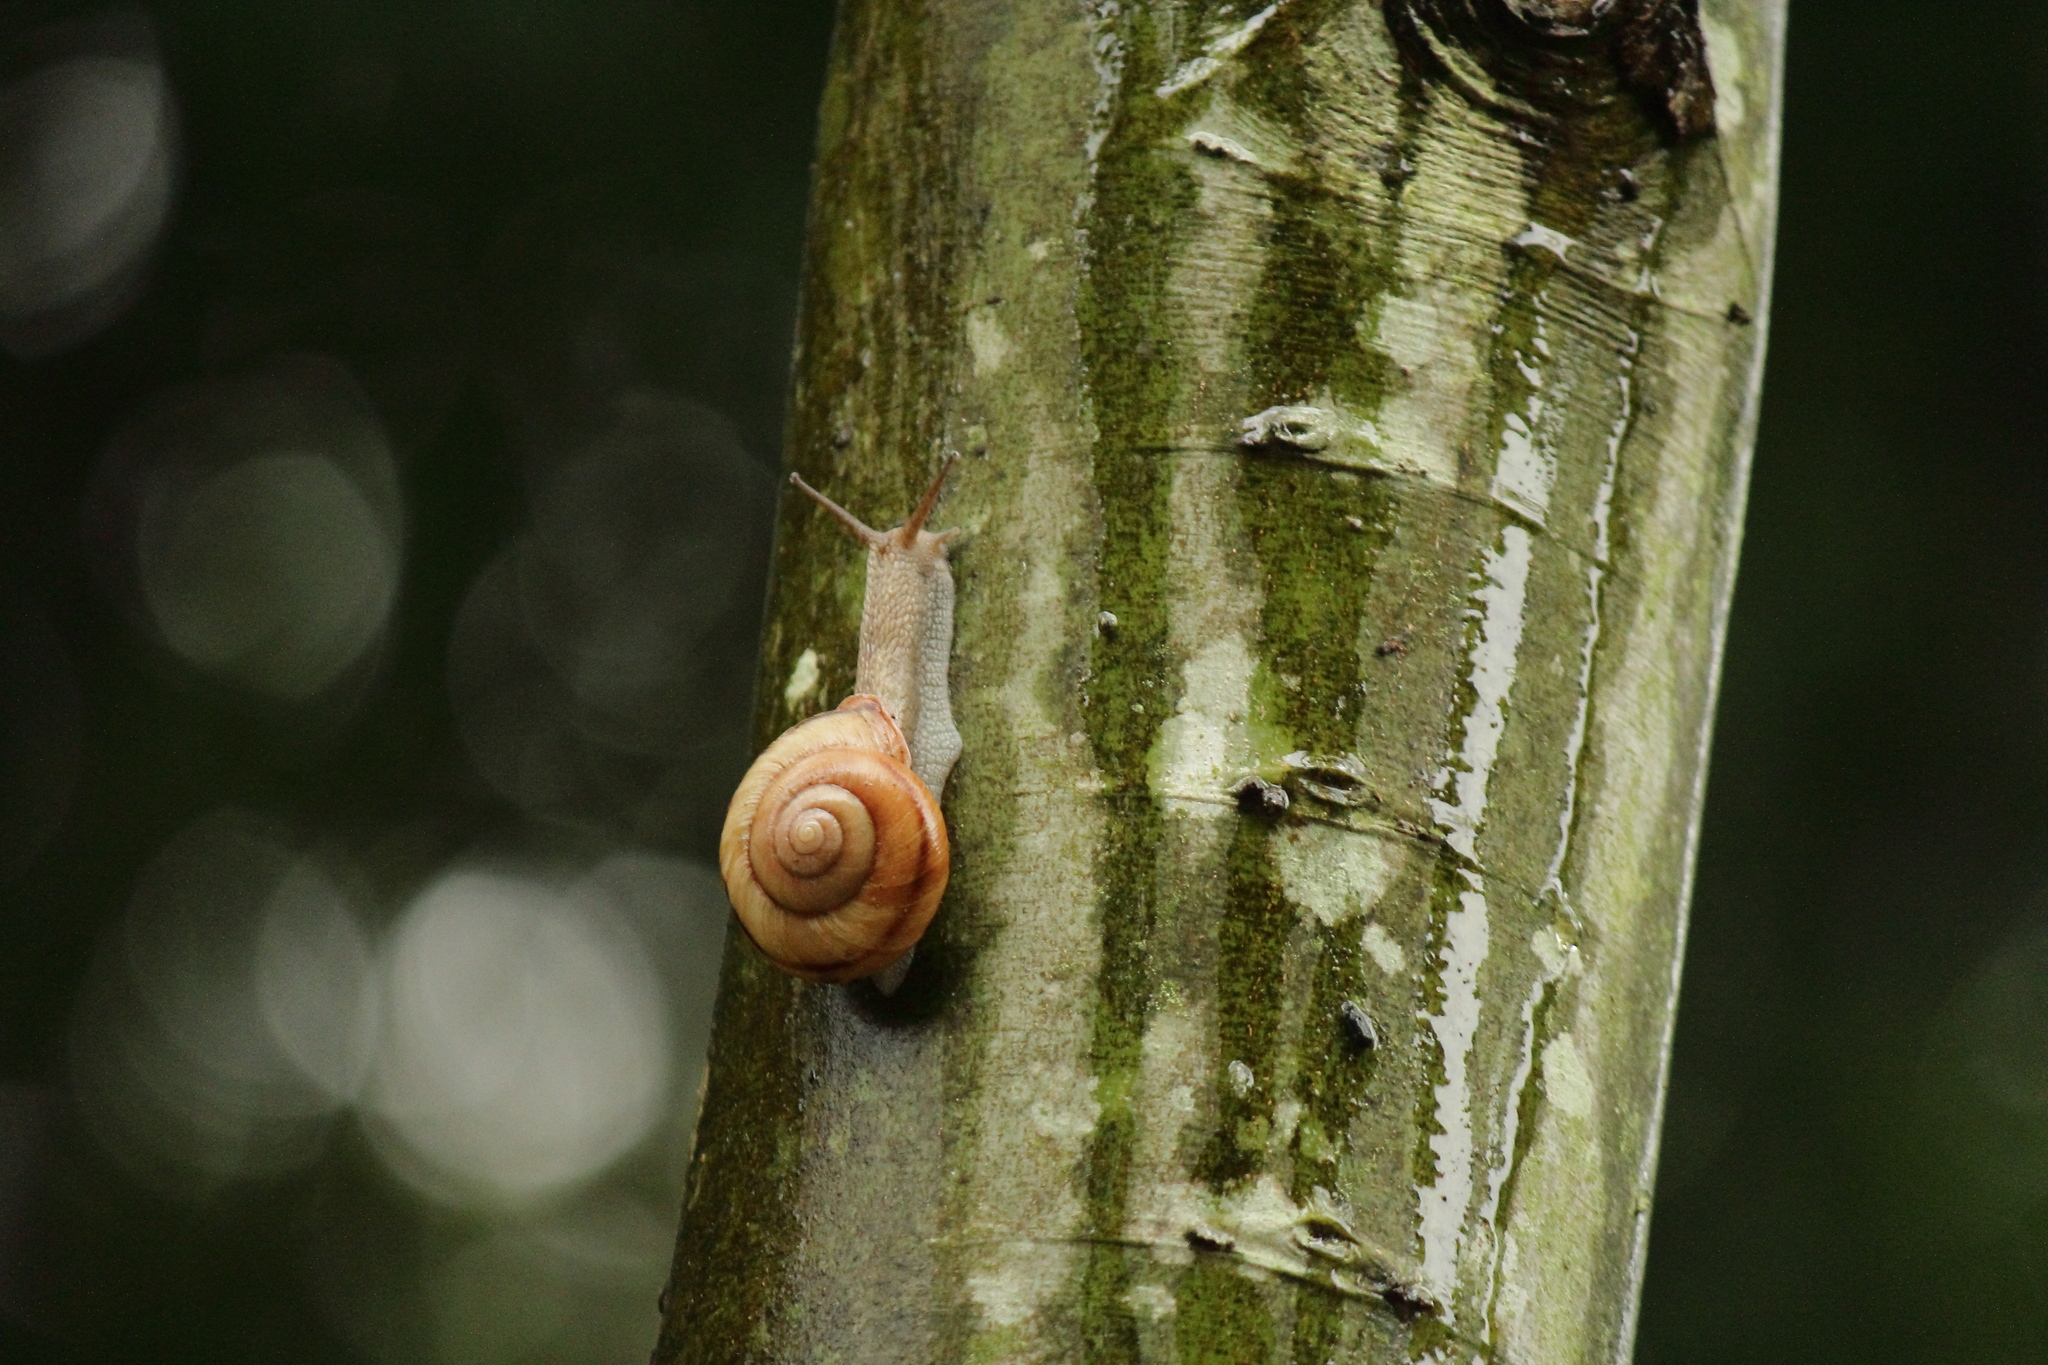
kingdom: Animalia
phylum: Mollusca
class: Gastropoda
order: Stylommatophora
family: Camaenidae
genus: Euhadra
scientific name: Euhadra sandai
